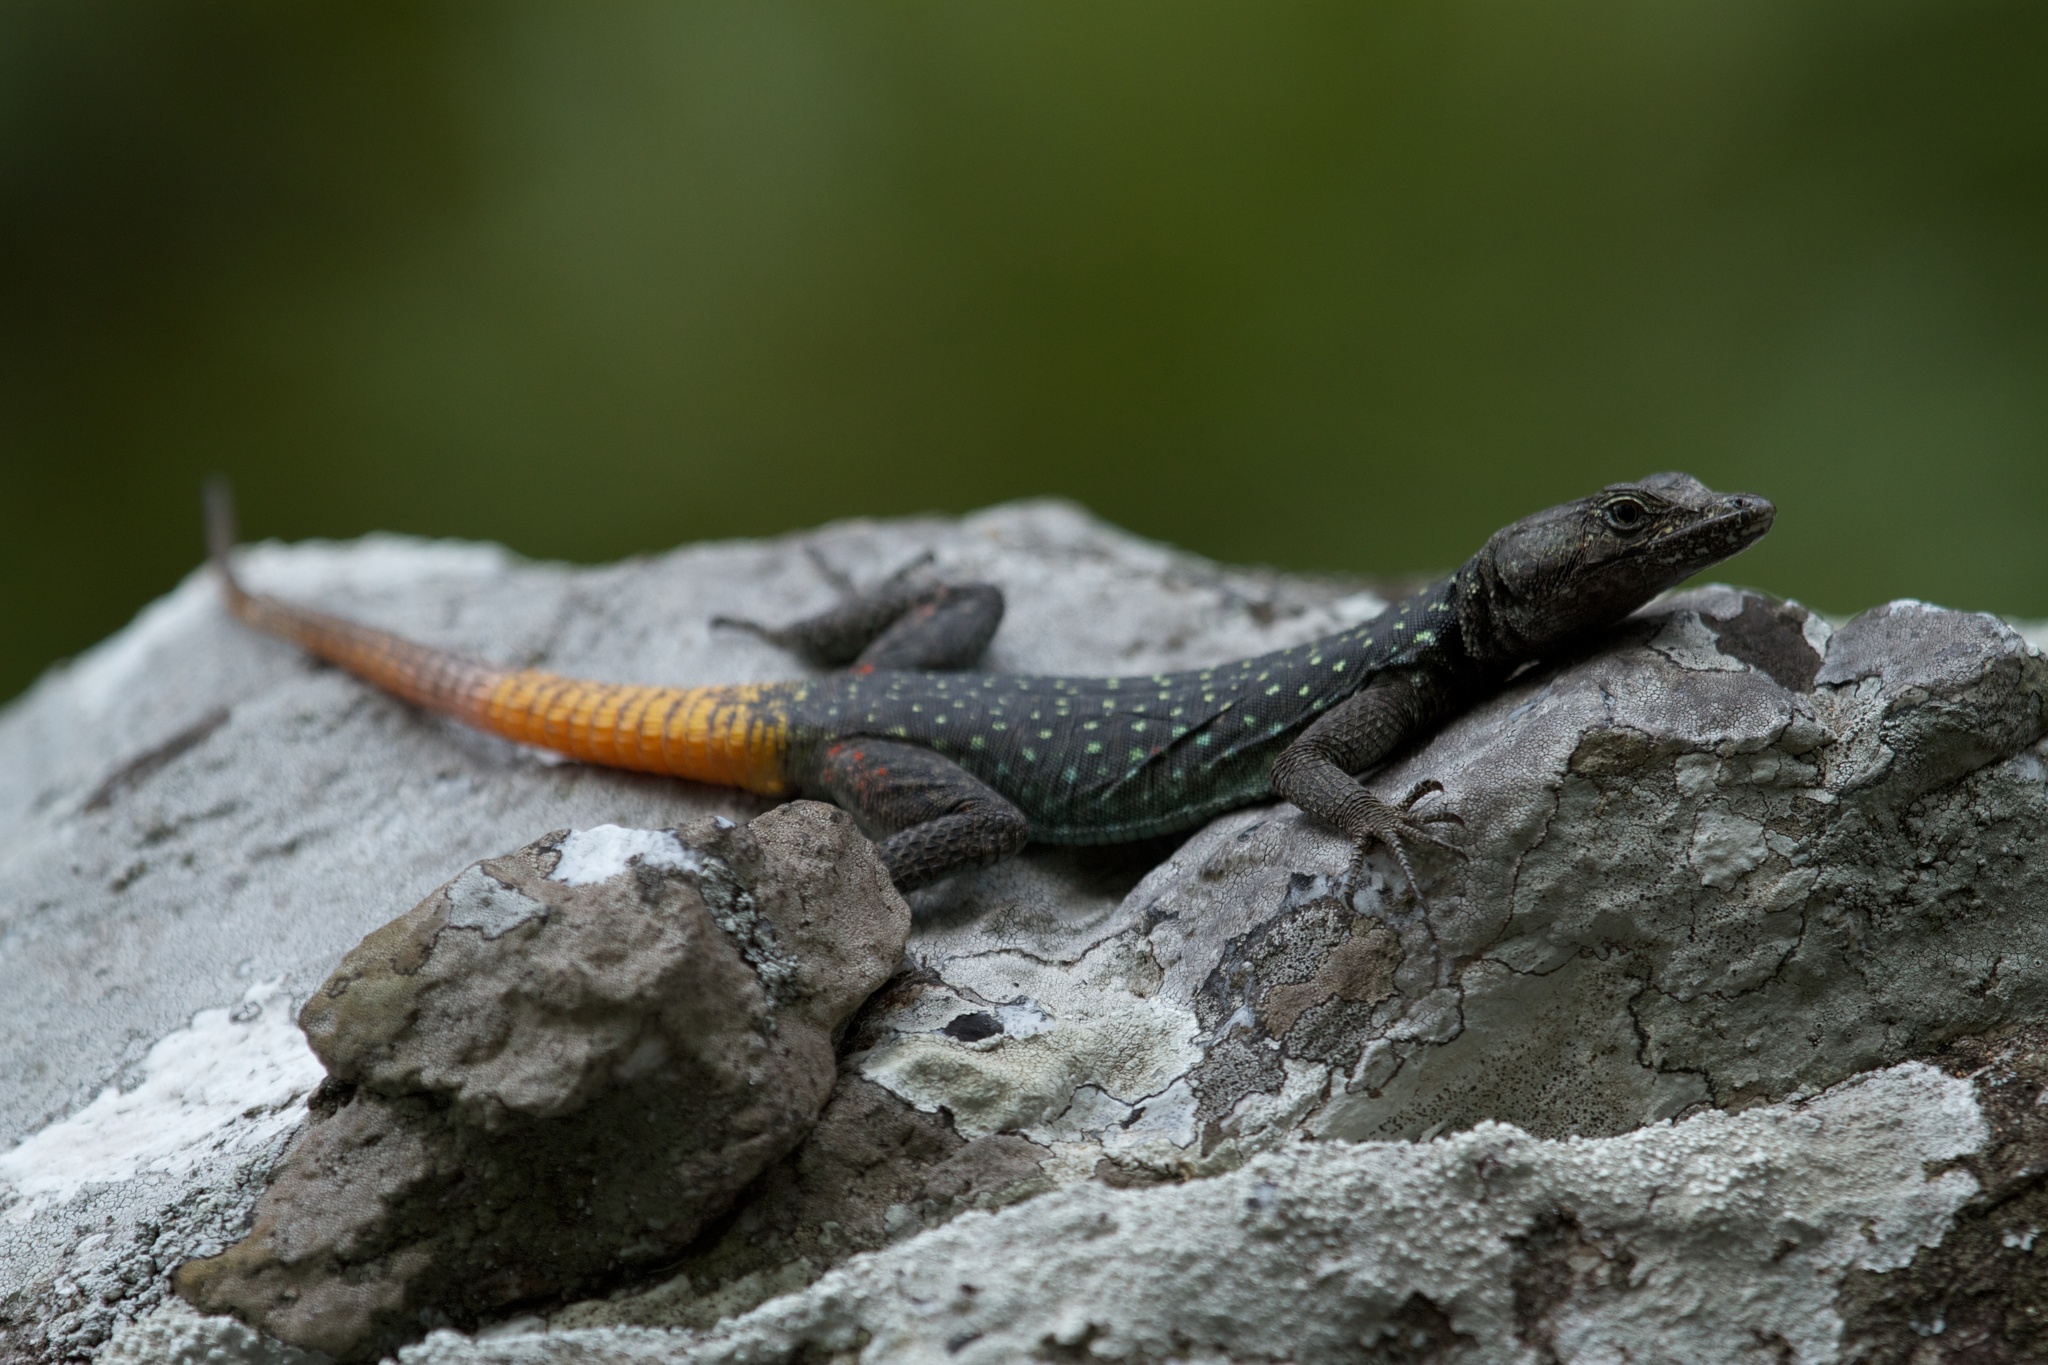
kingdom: Animalia
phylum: Chordata
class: Squamata
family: Cordylidae
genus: Platysaurus
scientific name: Platysaurus ocellatus
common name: Chimanimani flat lizard
